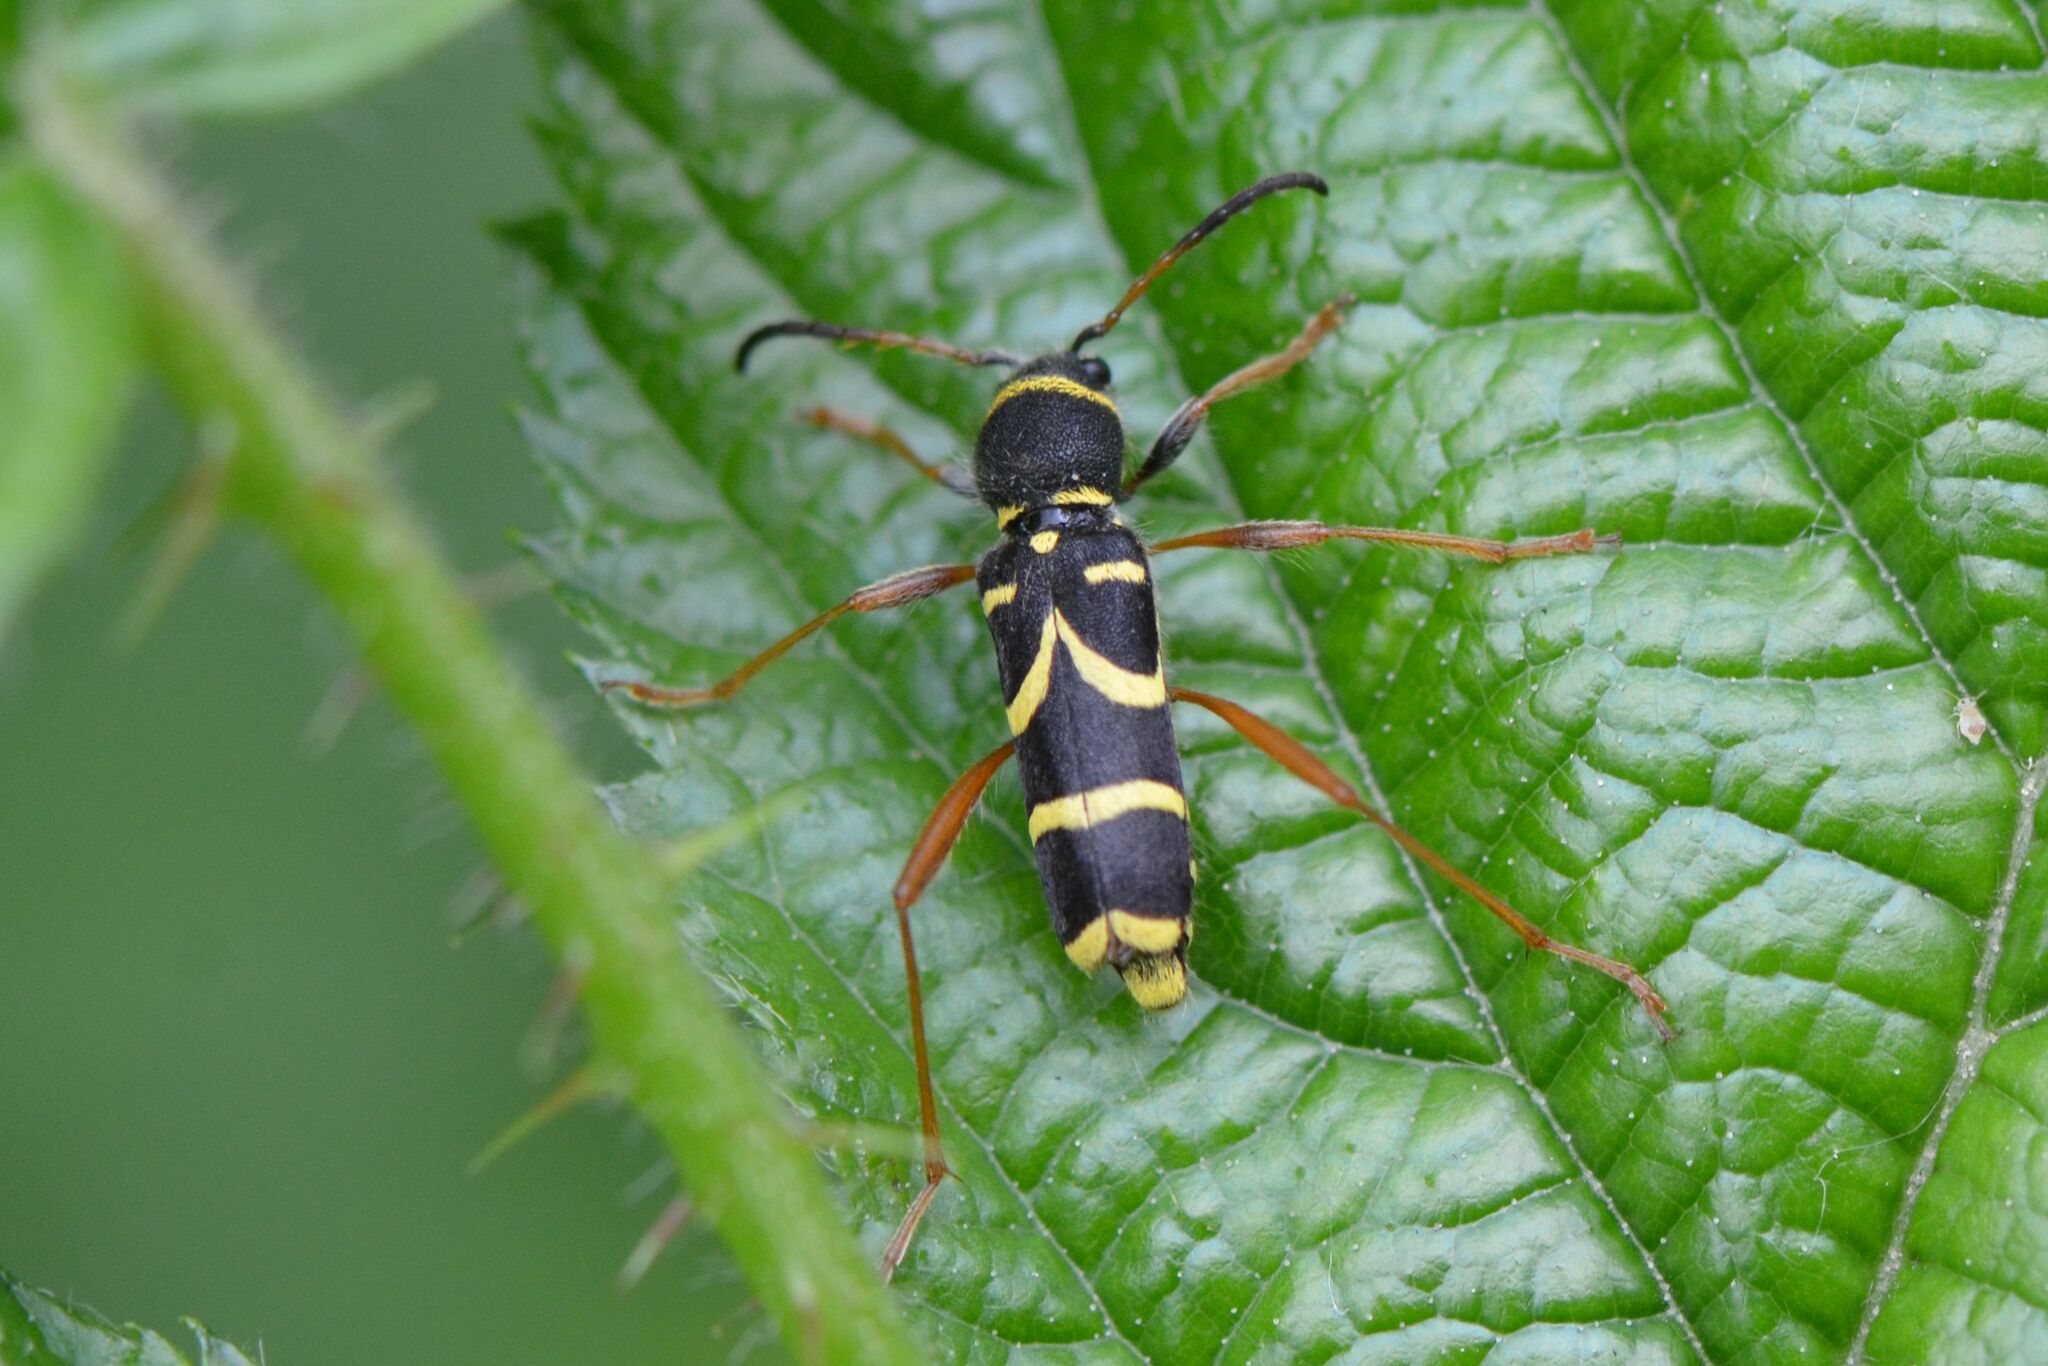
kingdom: Animalia
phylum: Arthropoda
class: Insecta
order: Coleoptera
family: Cerambycidae
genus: Clytus
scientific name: Clytus arietis
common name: Wasp beetle
